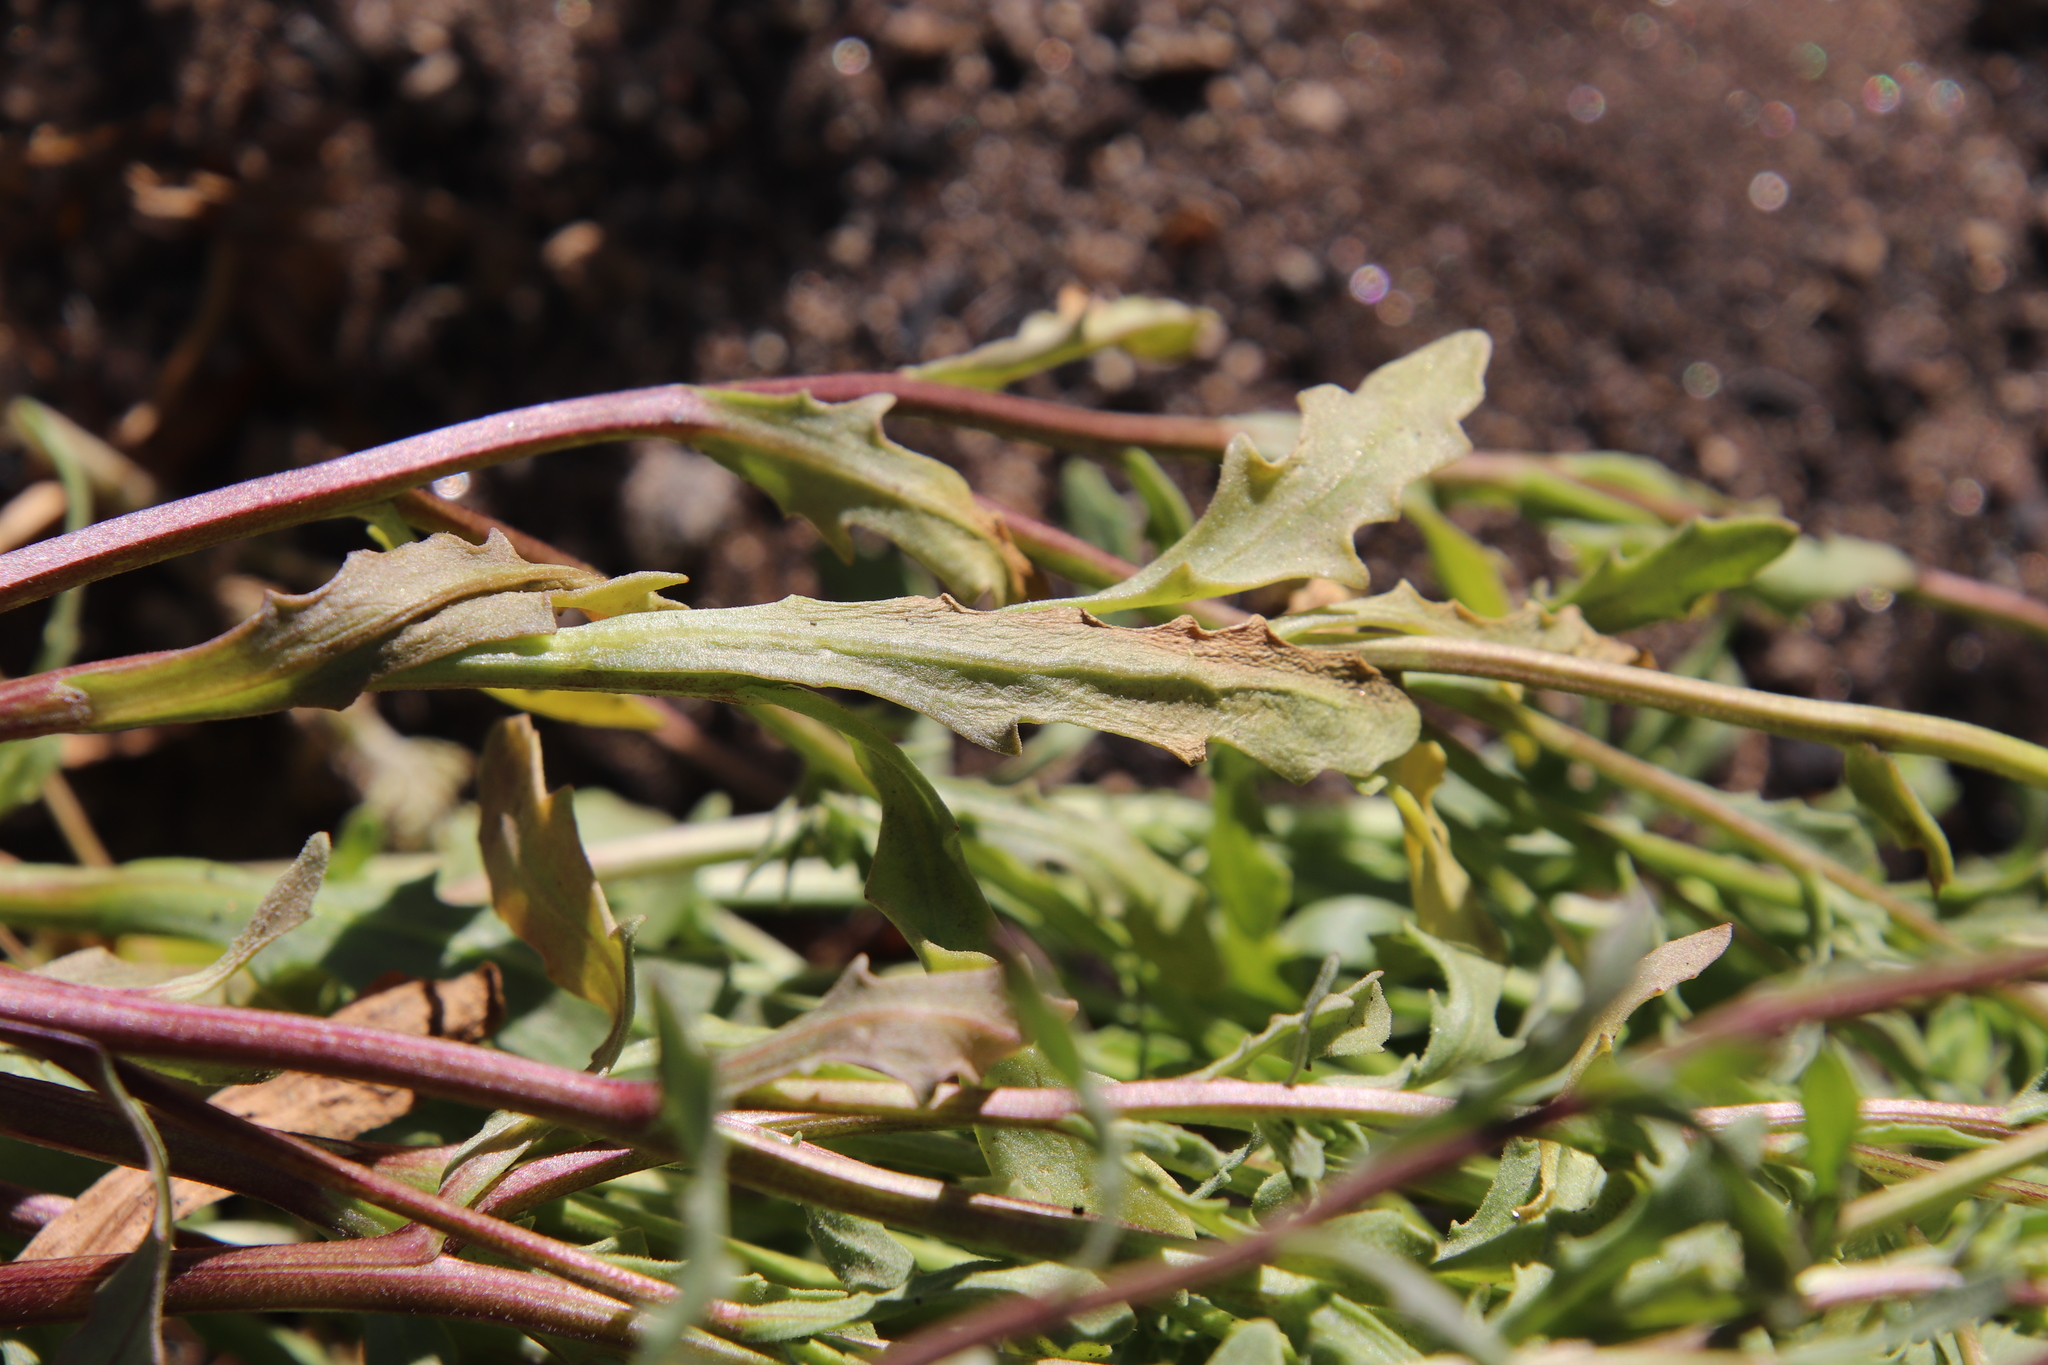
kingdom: Plantae
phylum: Tracheophyta
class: Magnoliopsida
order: Asterales
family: Asteraceae
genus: Dimorphotheca
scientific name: Dimorphotheca sinuata
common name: Glandular cape marigold
